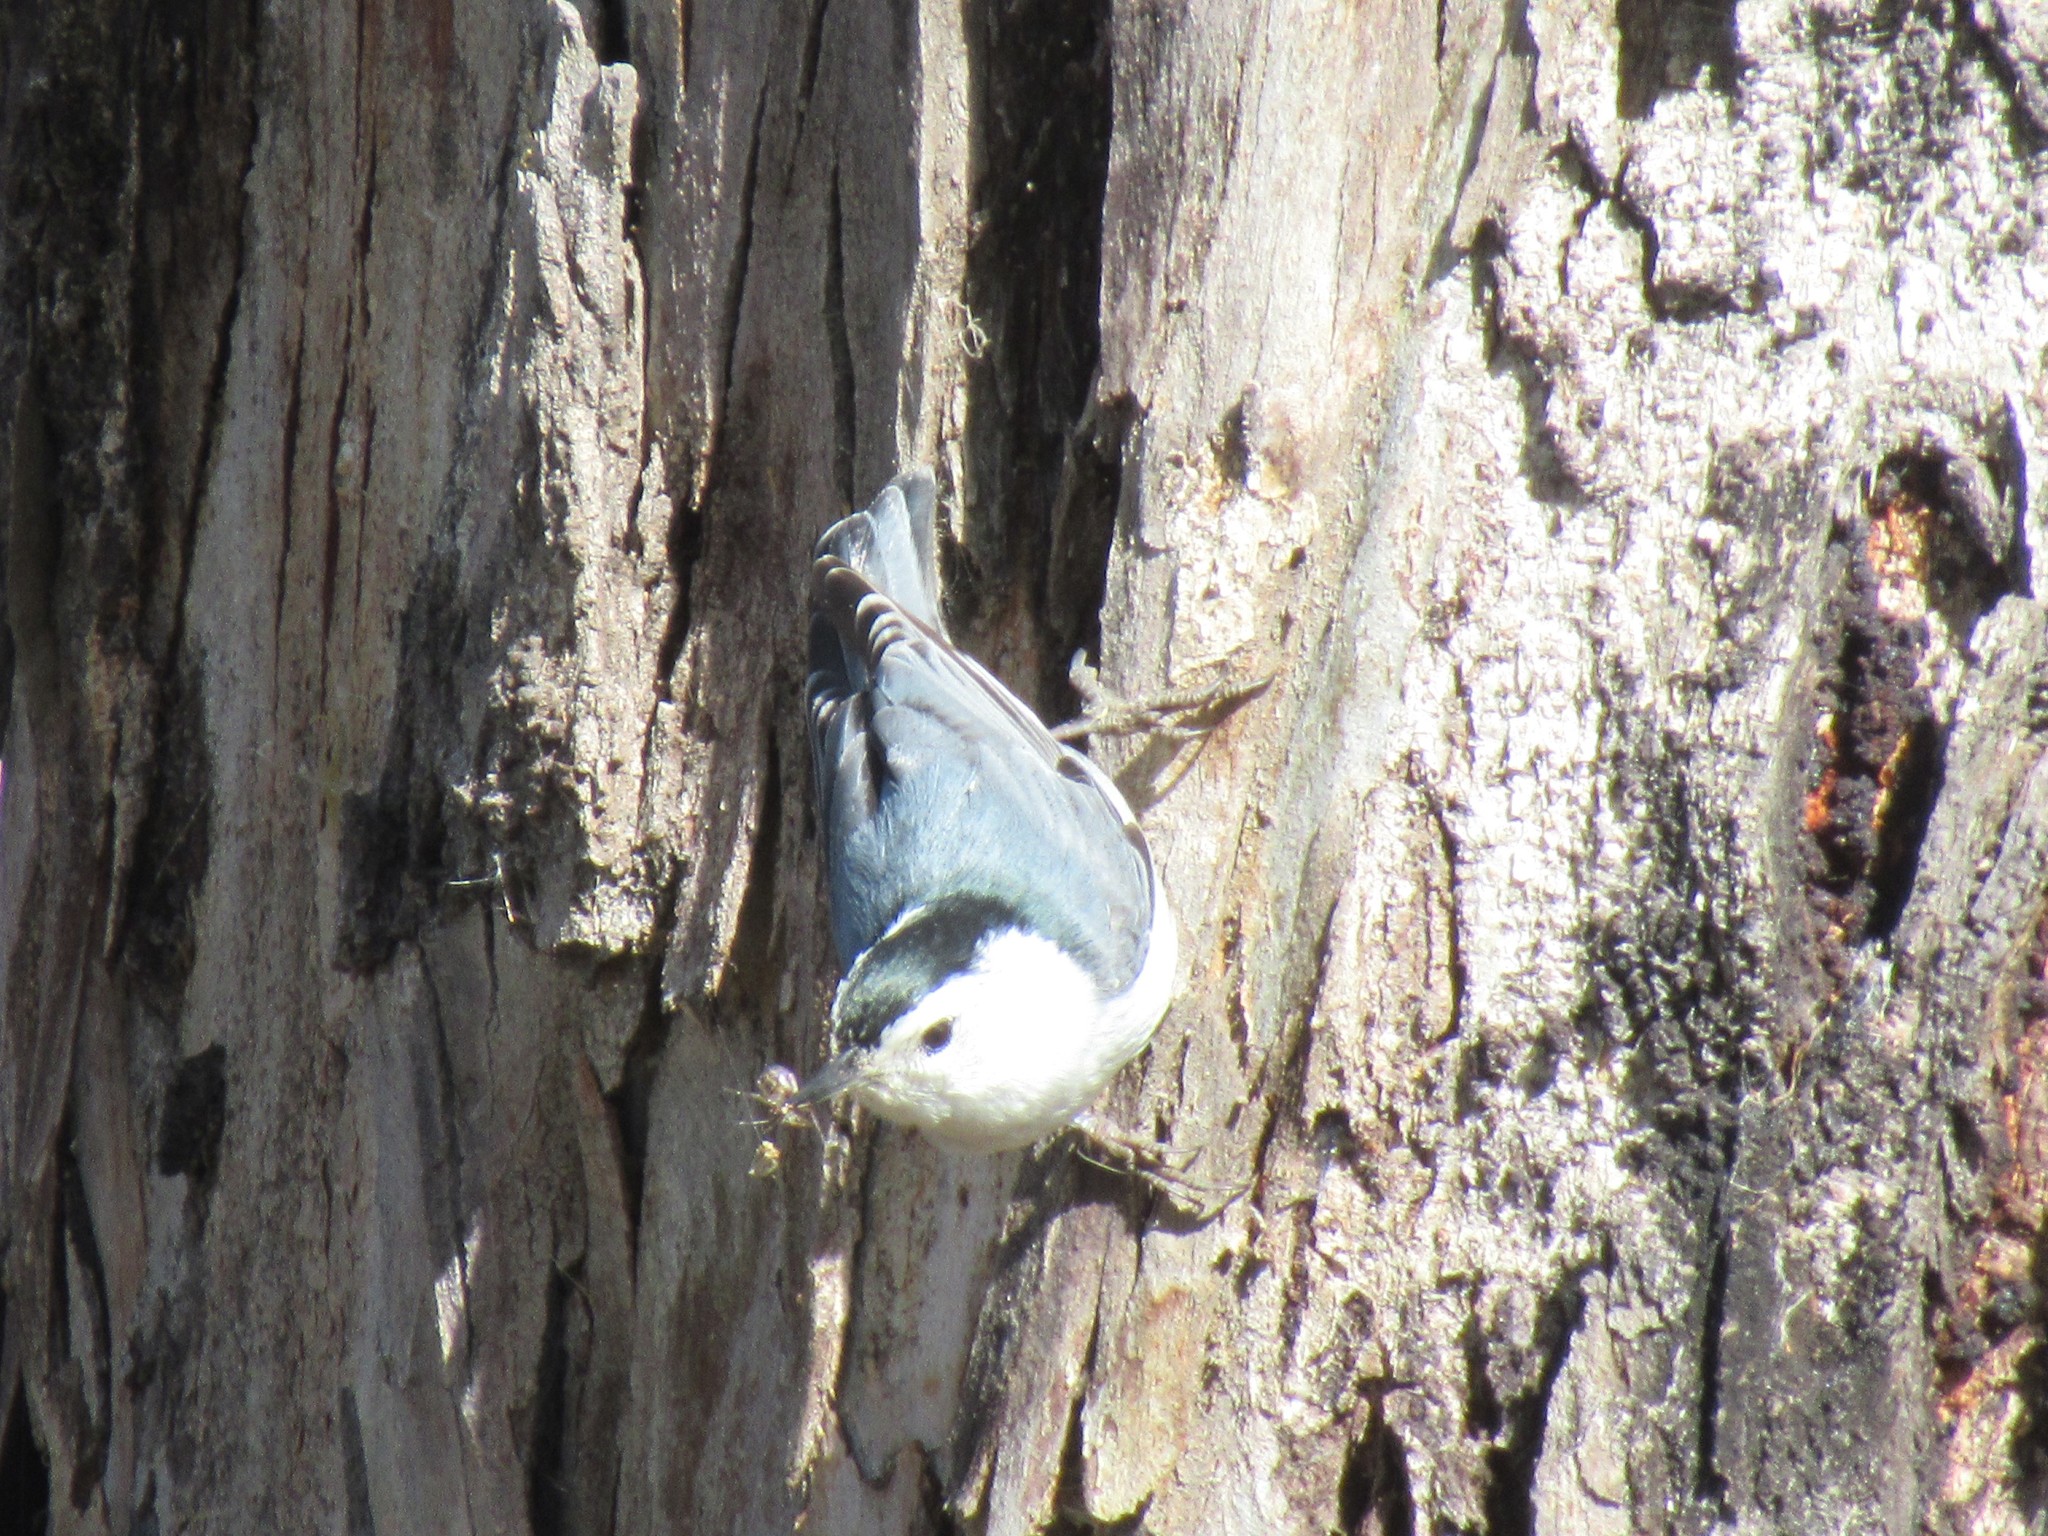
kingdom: Animalia
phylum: Chordata
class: Aves
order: Passeriformes
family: Sittidae
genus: Sitta
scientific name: Sitta carolinensis
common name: White-breasted nuthatch
